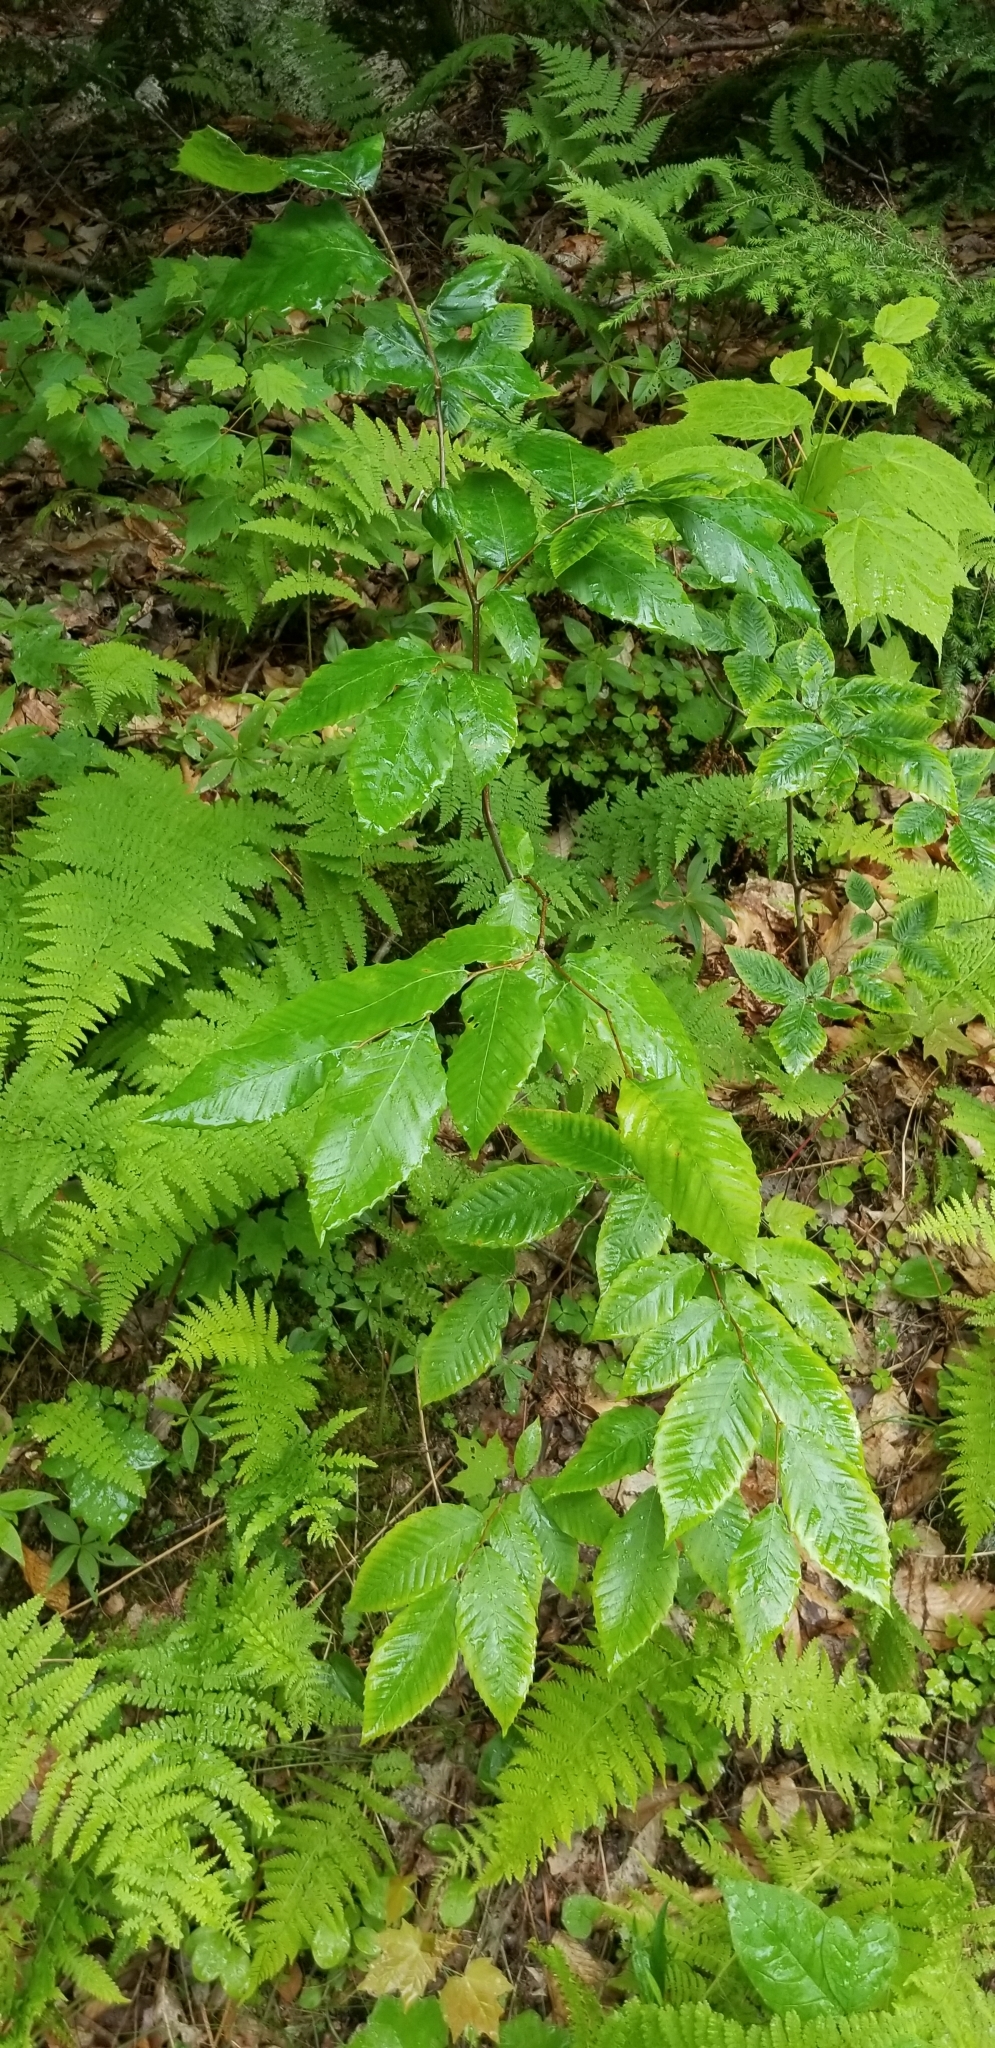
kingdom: Plantae
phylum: Tracheophyta
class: Magnoliopsida
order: Fagales
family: Fagaceae
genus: Fagus
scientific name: Fagus grandifolia
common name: American beech
